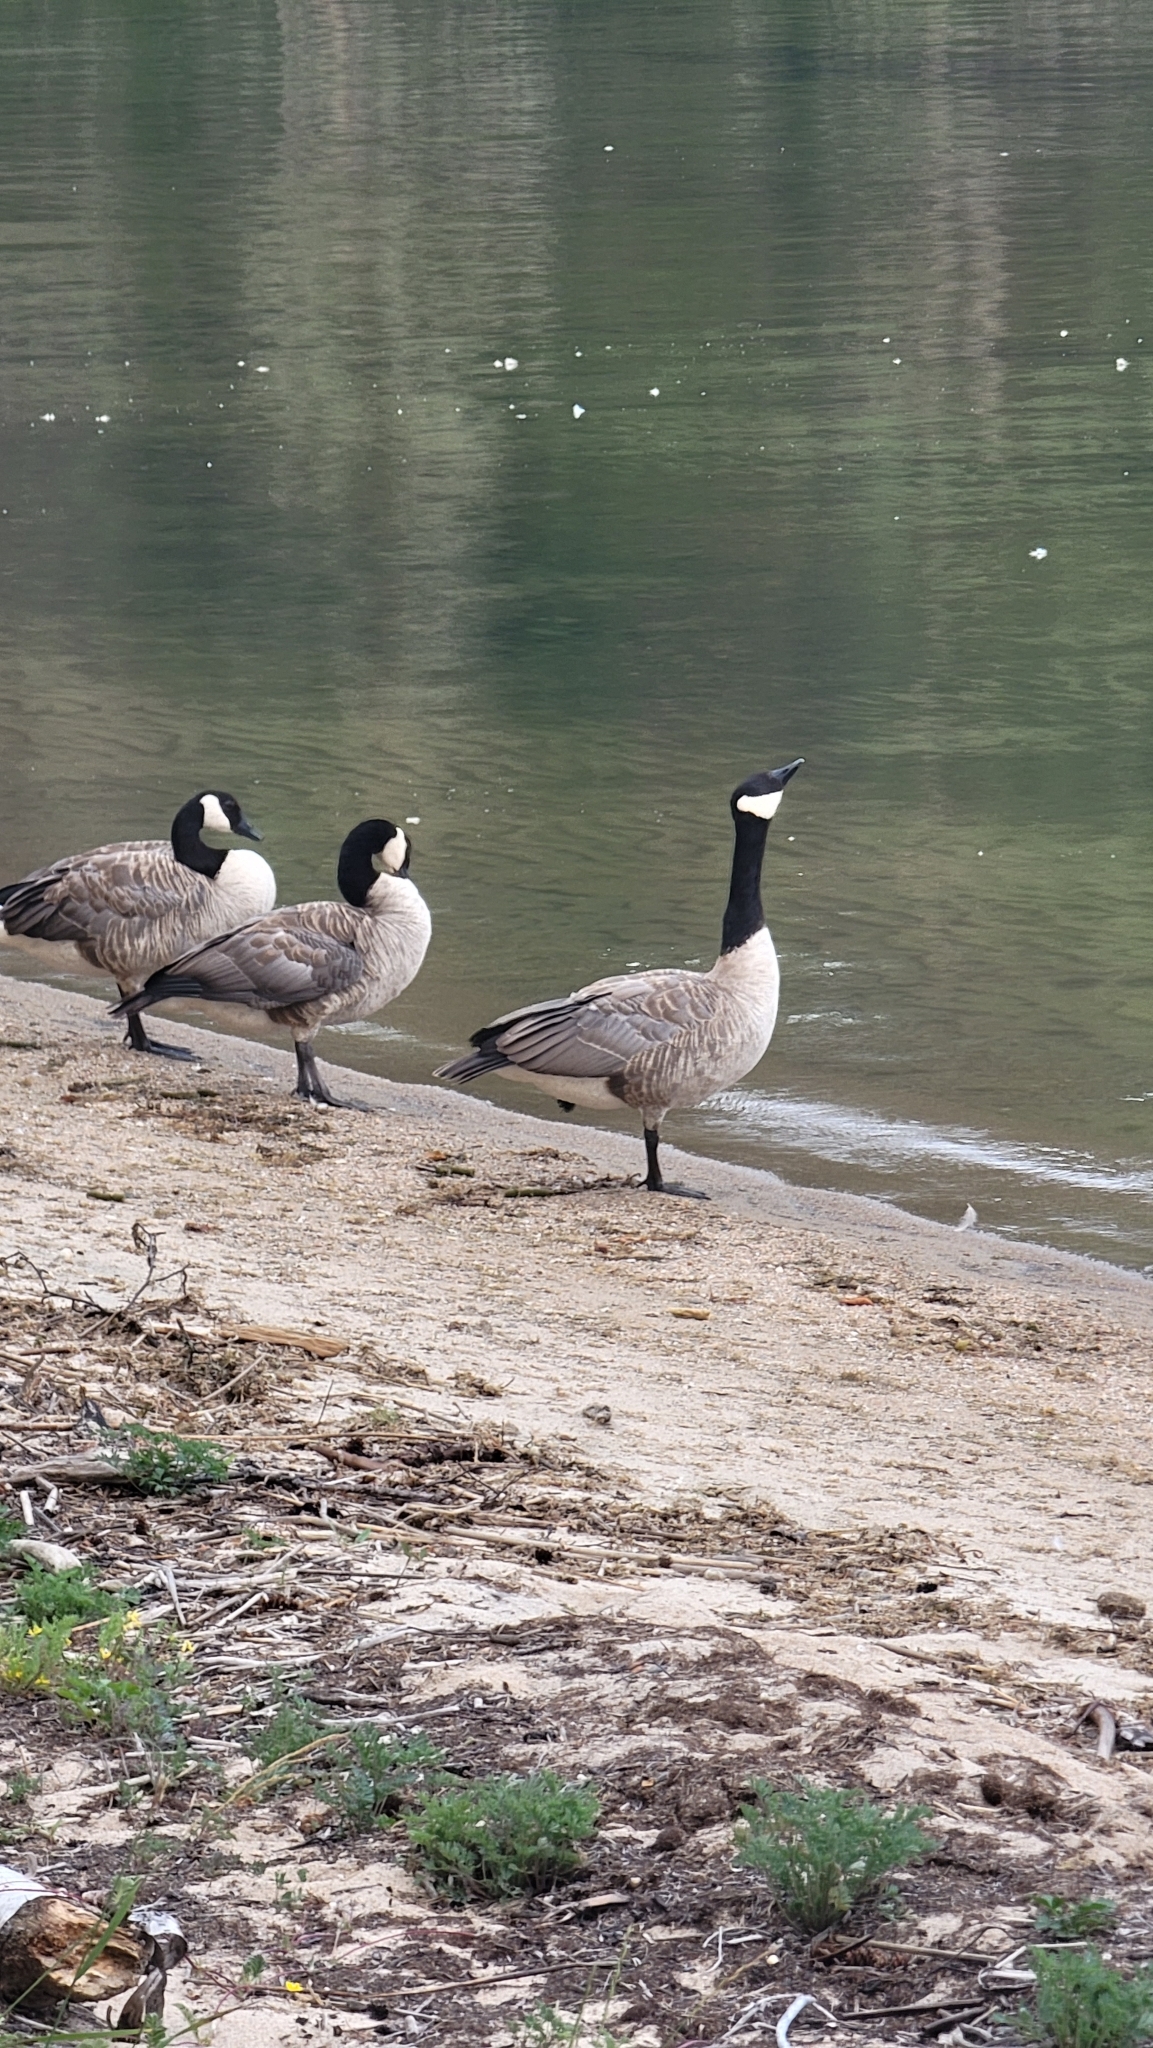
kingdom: Animalia
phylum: Chordata
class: Aves
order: Anseriformes
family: Anatidae
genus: Branta
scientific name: Branta canadensis
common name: Canada goose
